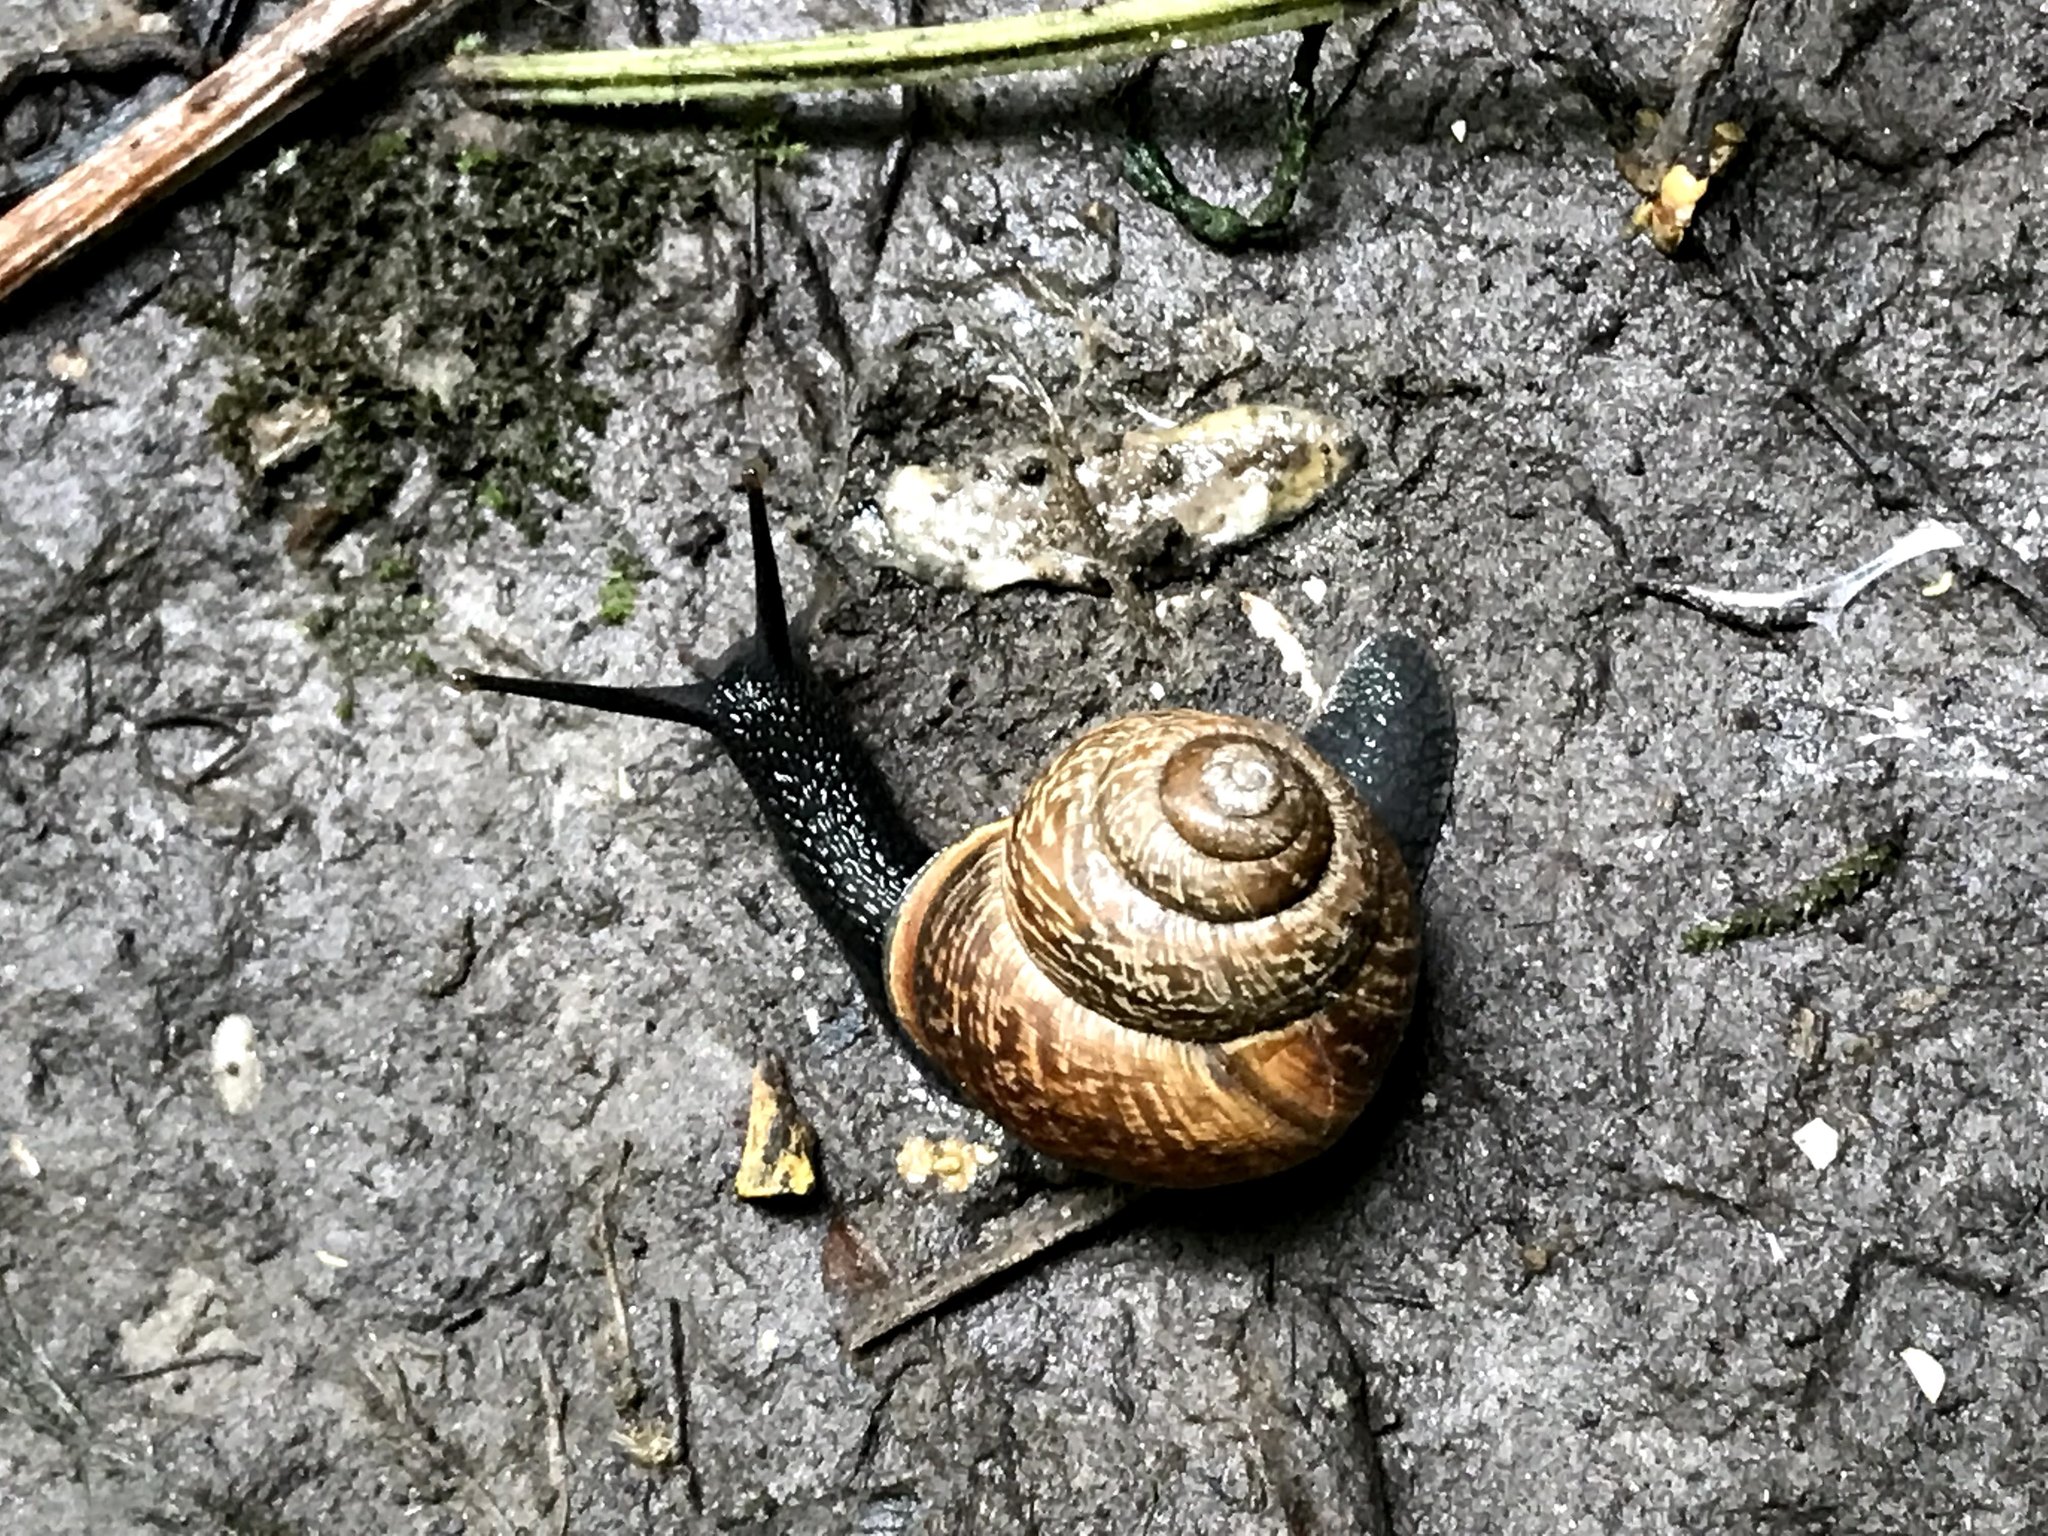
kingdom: Animalia
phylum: Mollusca
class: Gastropoda
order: Stylommatophora
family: Helicidae
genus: Arianta
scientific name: Arianta arbustorum
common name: Copse snail
